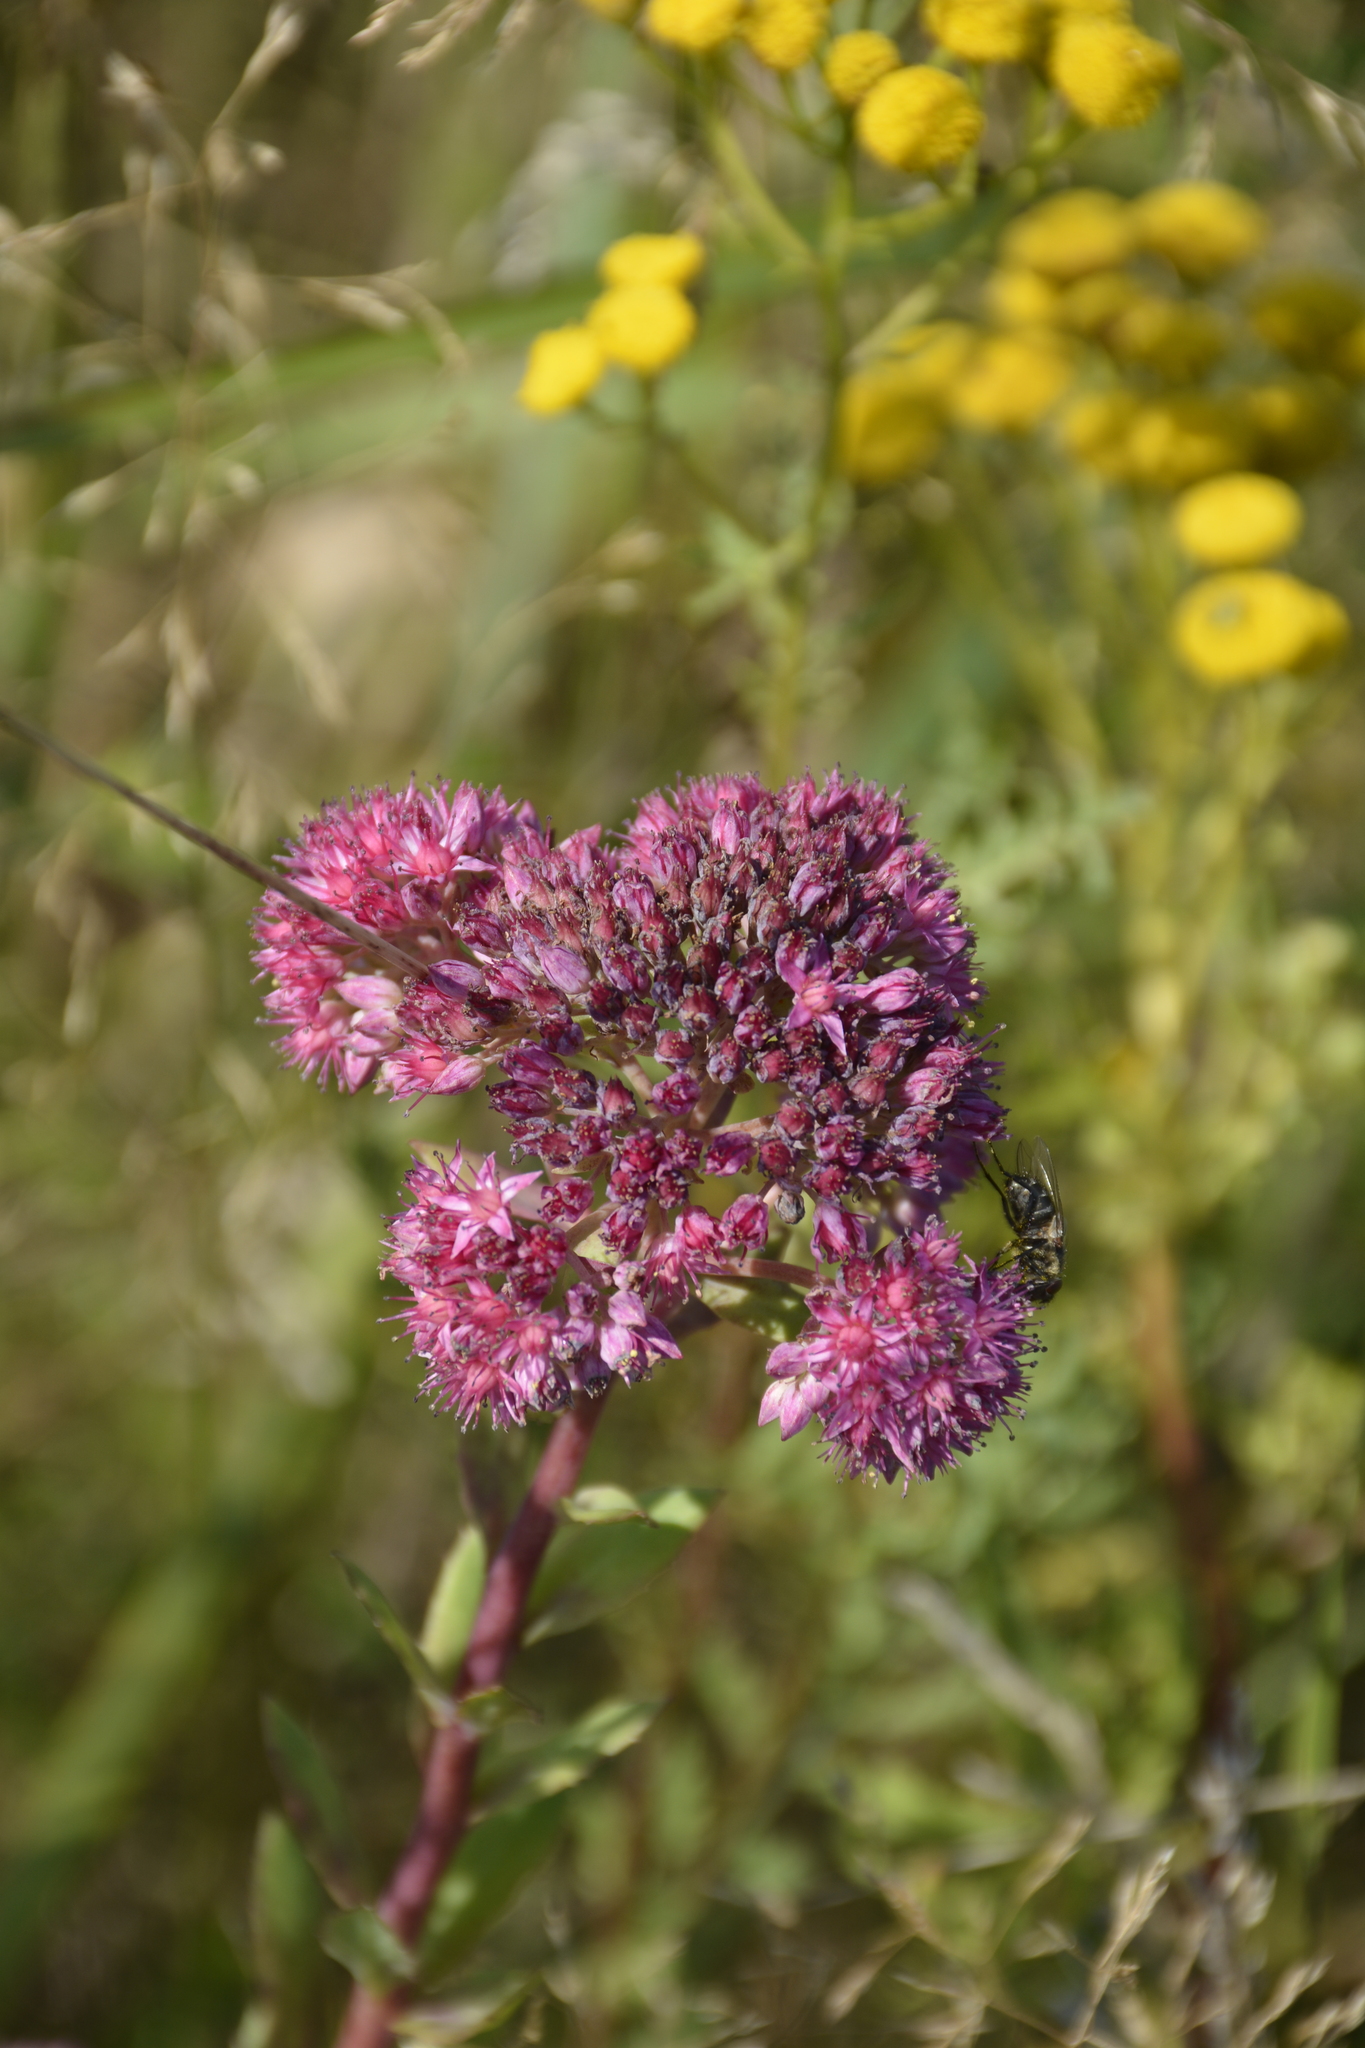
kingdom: Plantae
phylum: Tracheophyta
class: Magnoliopsida
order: Saxifragales
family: Crassulaceae
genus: Hylotelephium
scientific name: Hylotelephium telephium
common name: Live-forever
